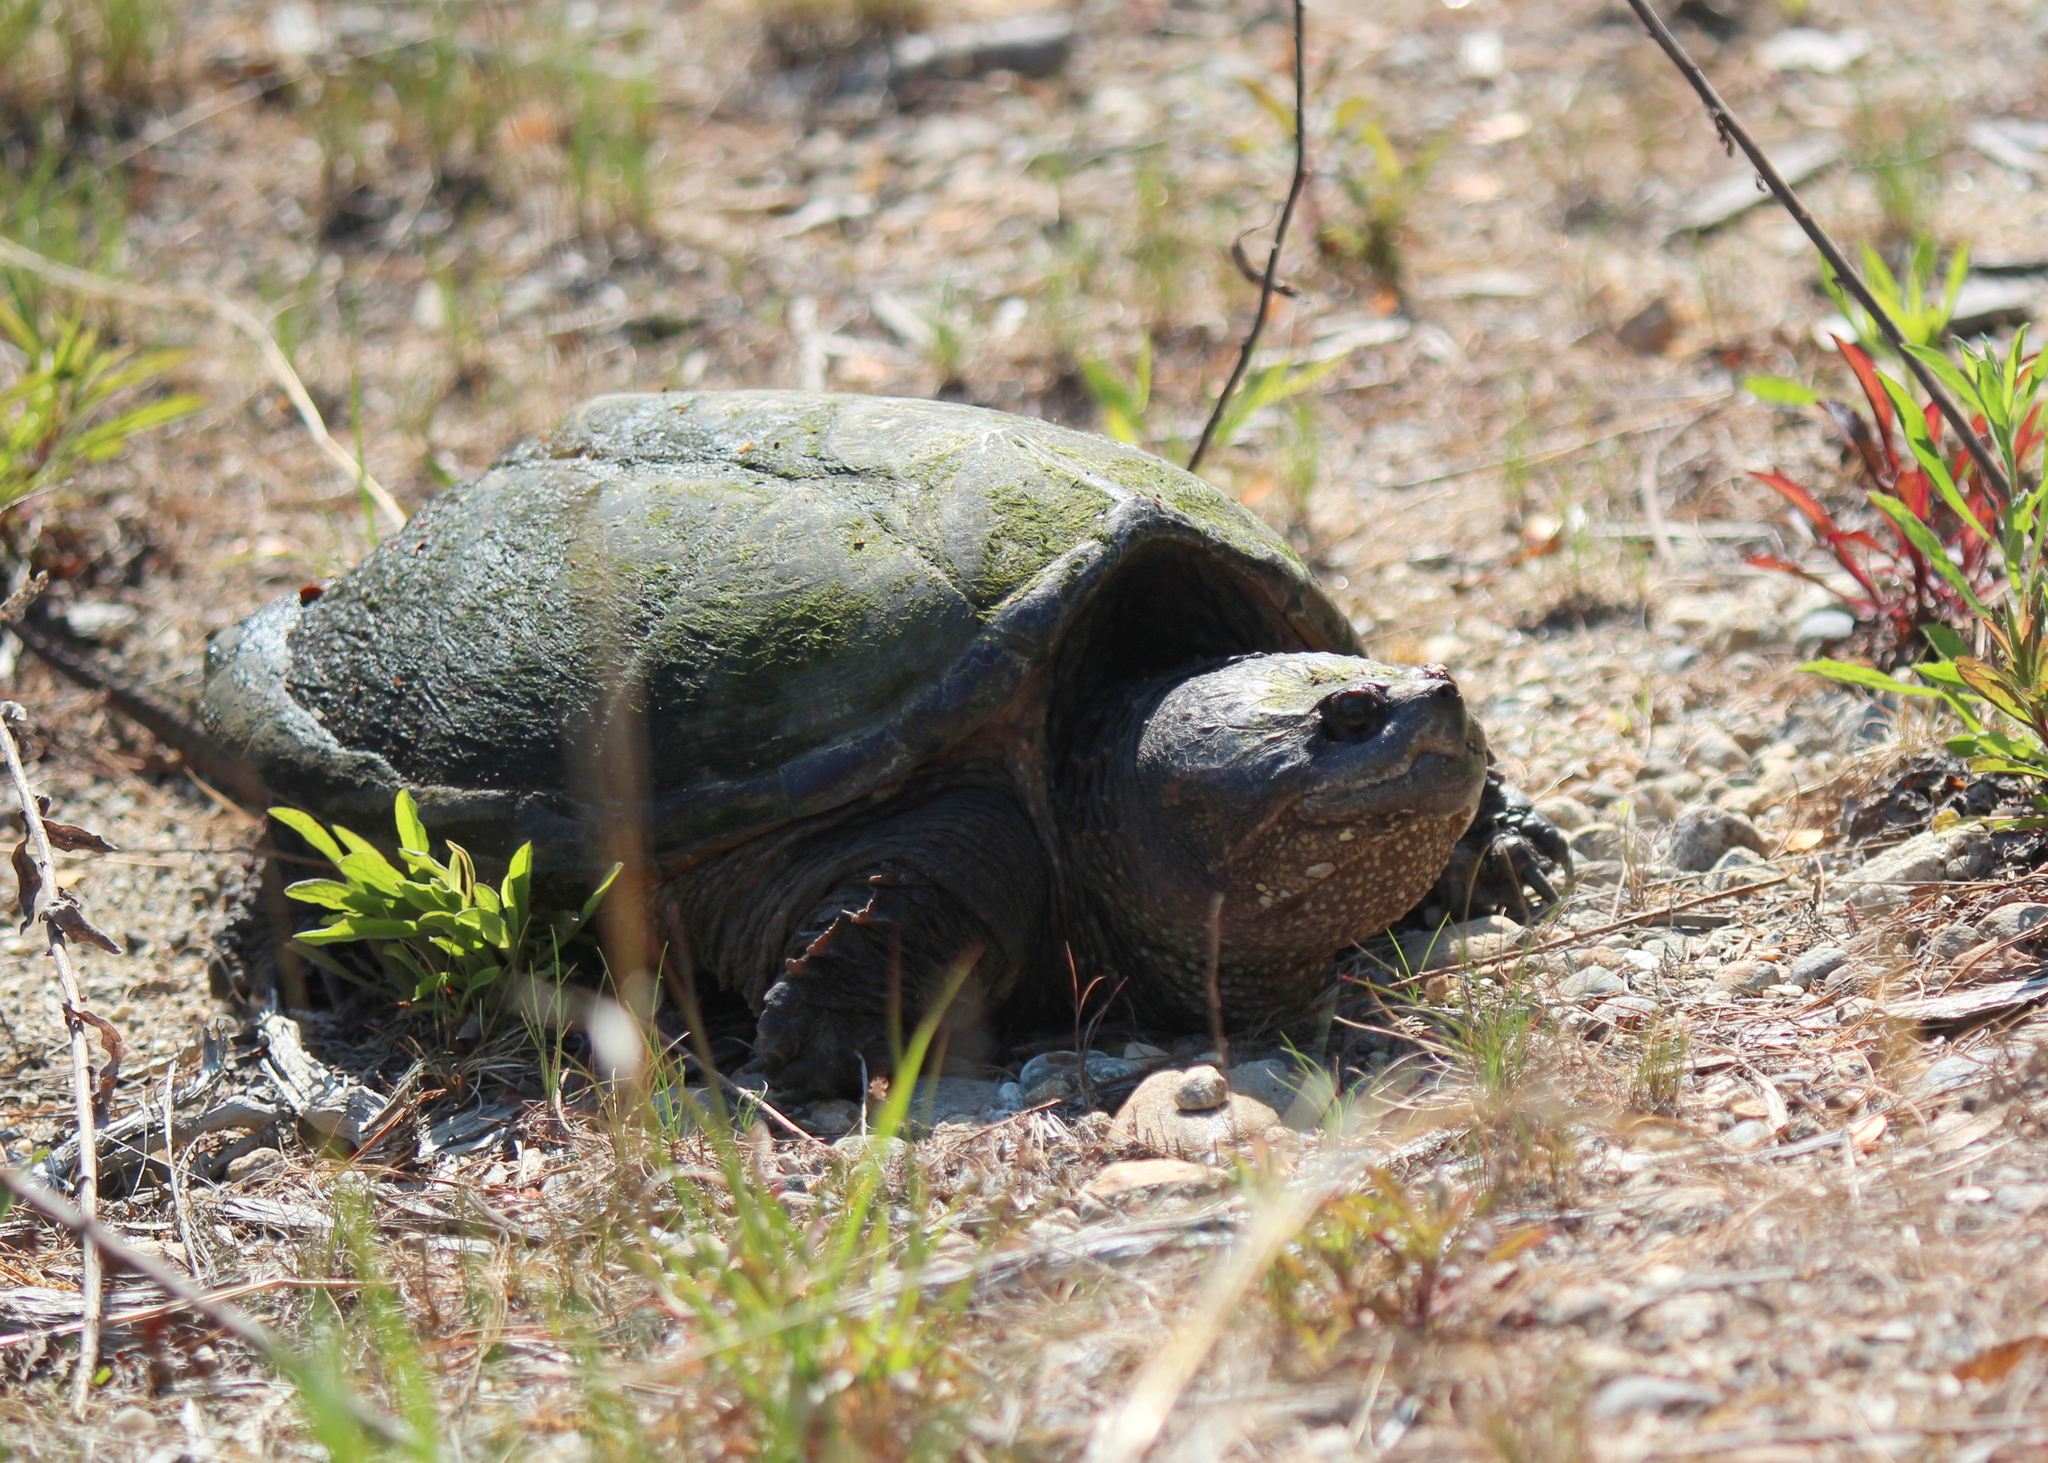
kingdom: Animalia
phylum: Chordata
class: Testudines
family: Chelydridae
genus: Chelydra
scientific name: Chelydra serpentina
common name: Common snapping turtle
